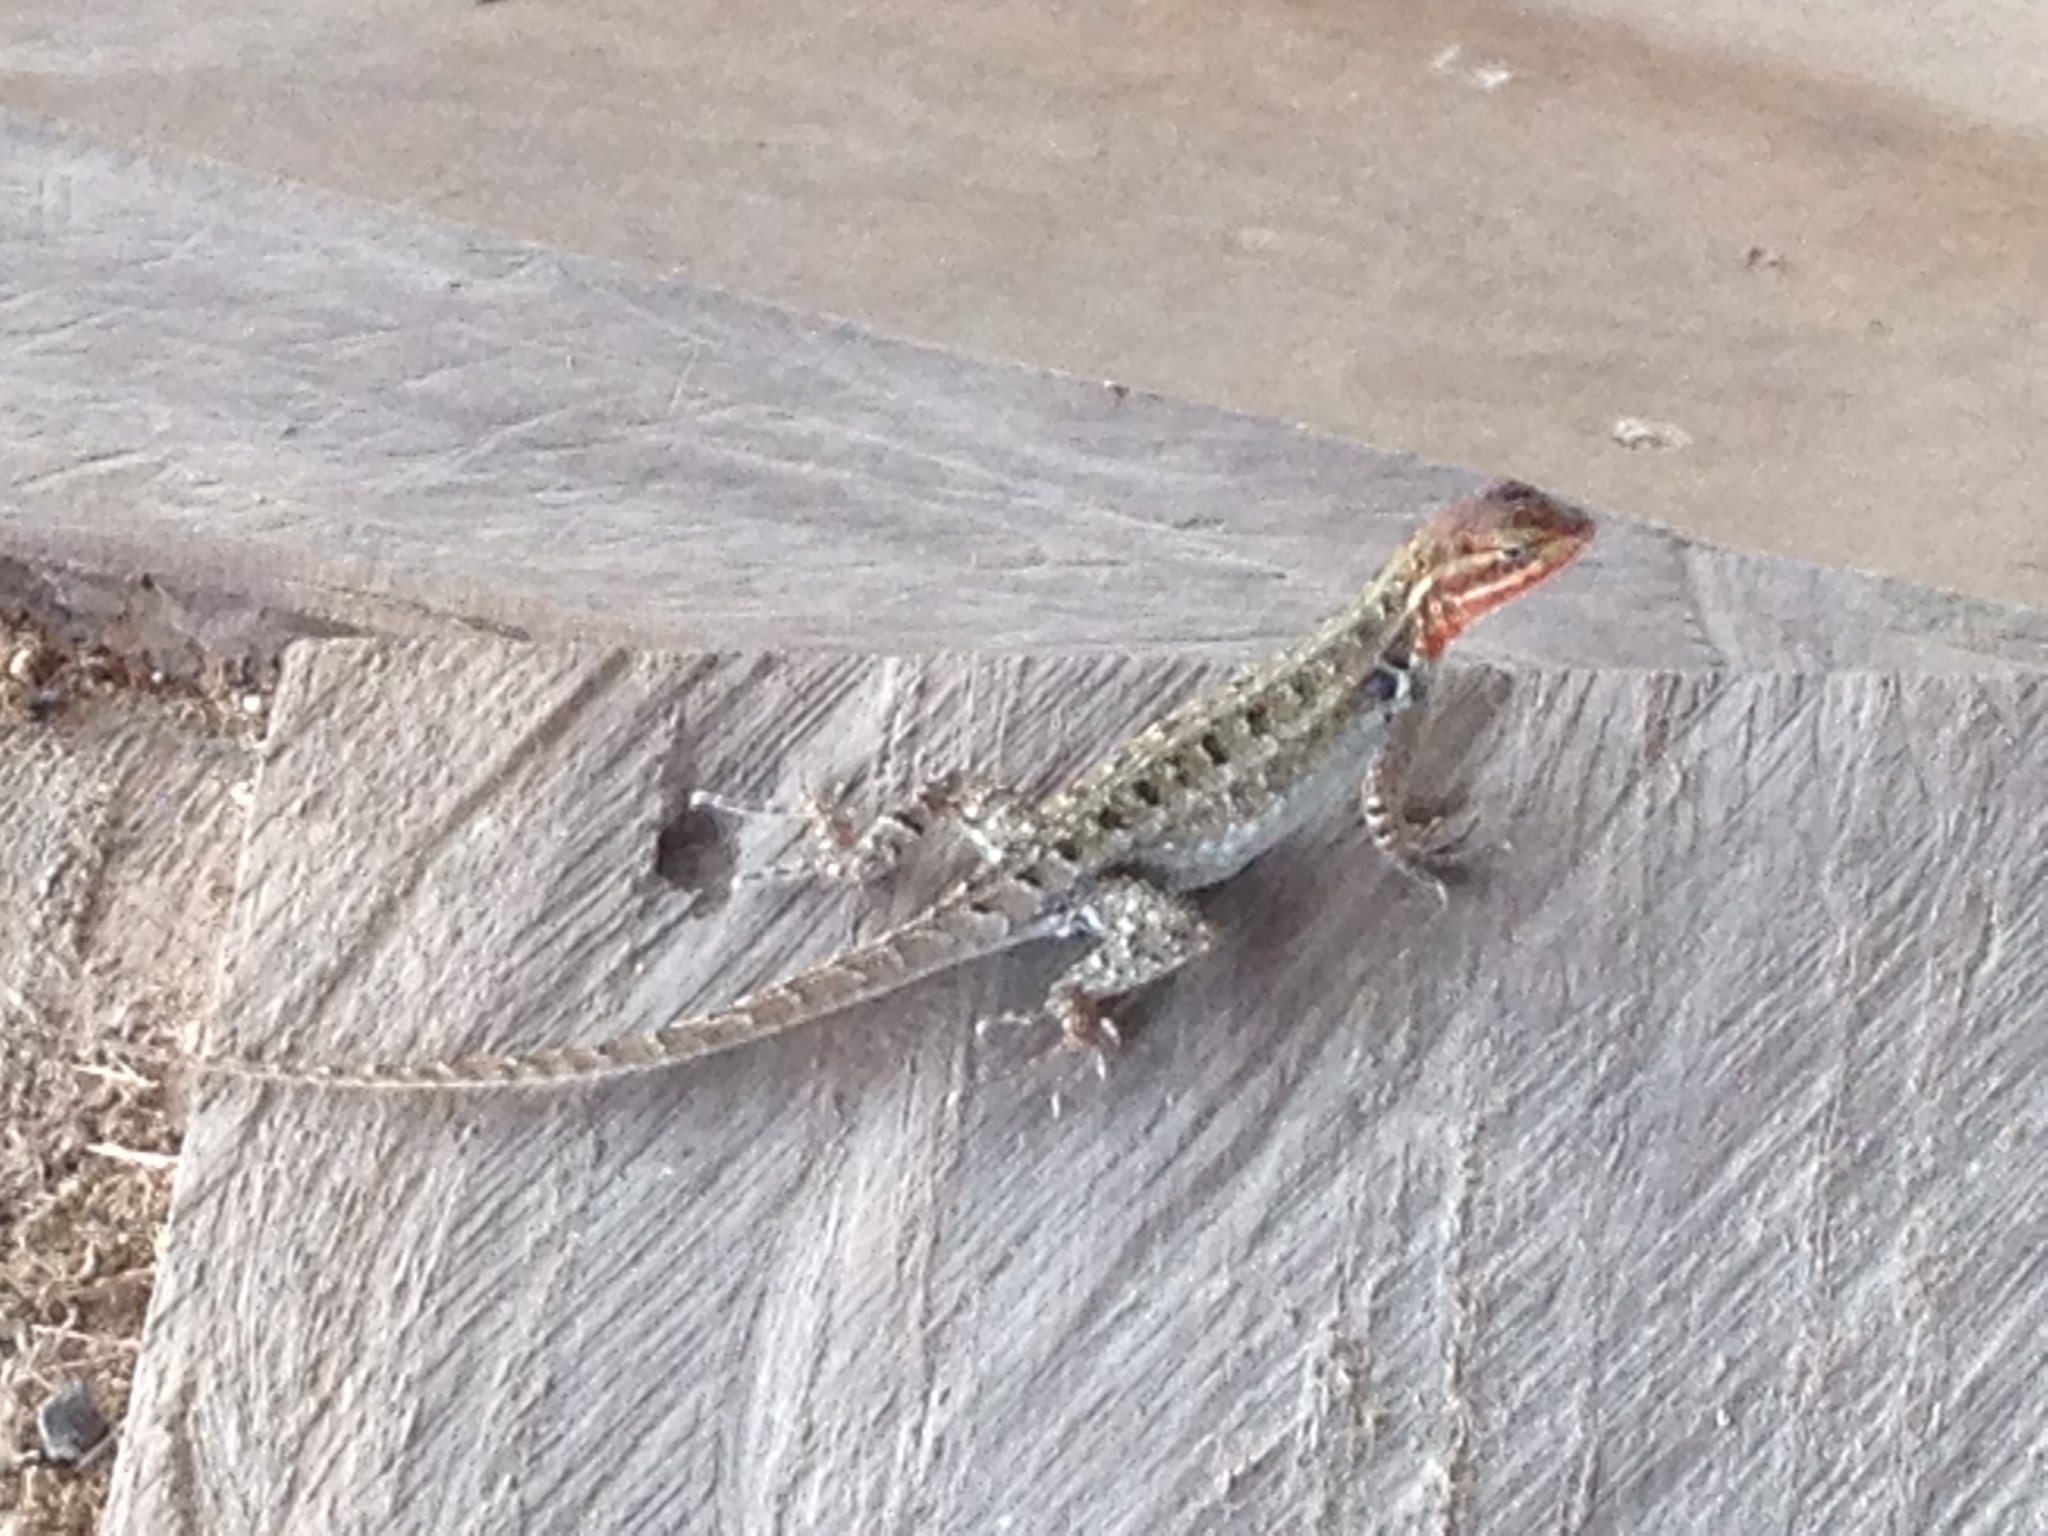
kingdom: Animalia
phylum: Chordata
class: Squamata
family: Phrynosomatidae
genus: Sceloporus
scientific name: Sceloporus variabilis
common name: Rosebelly lizard
